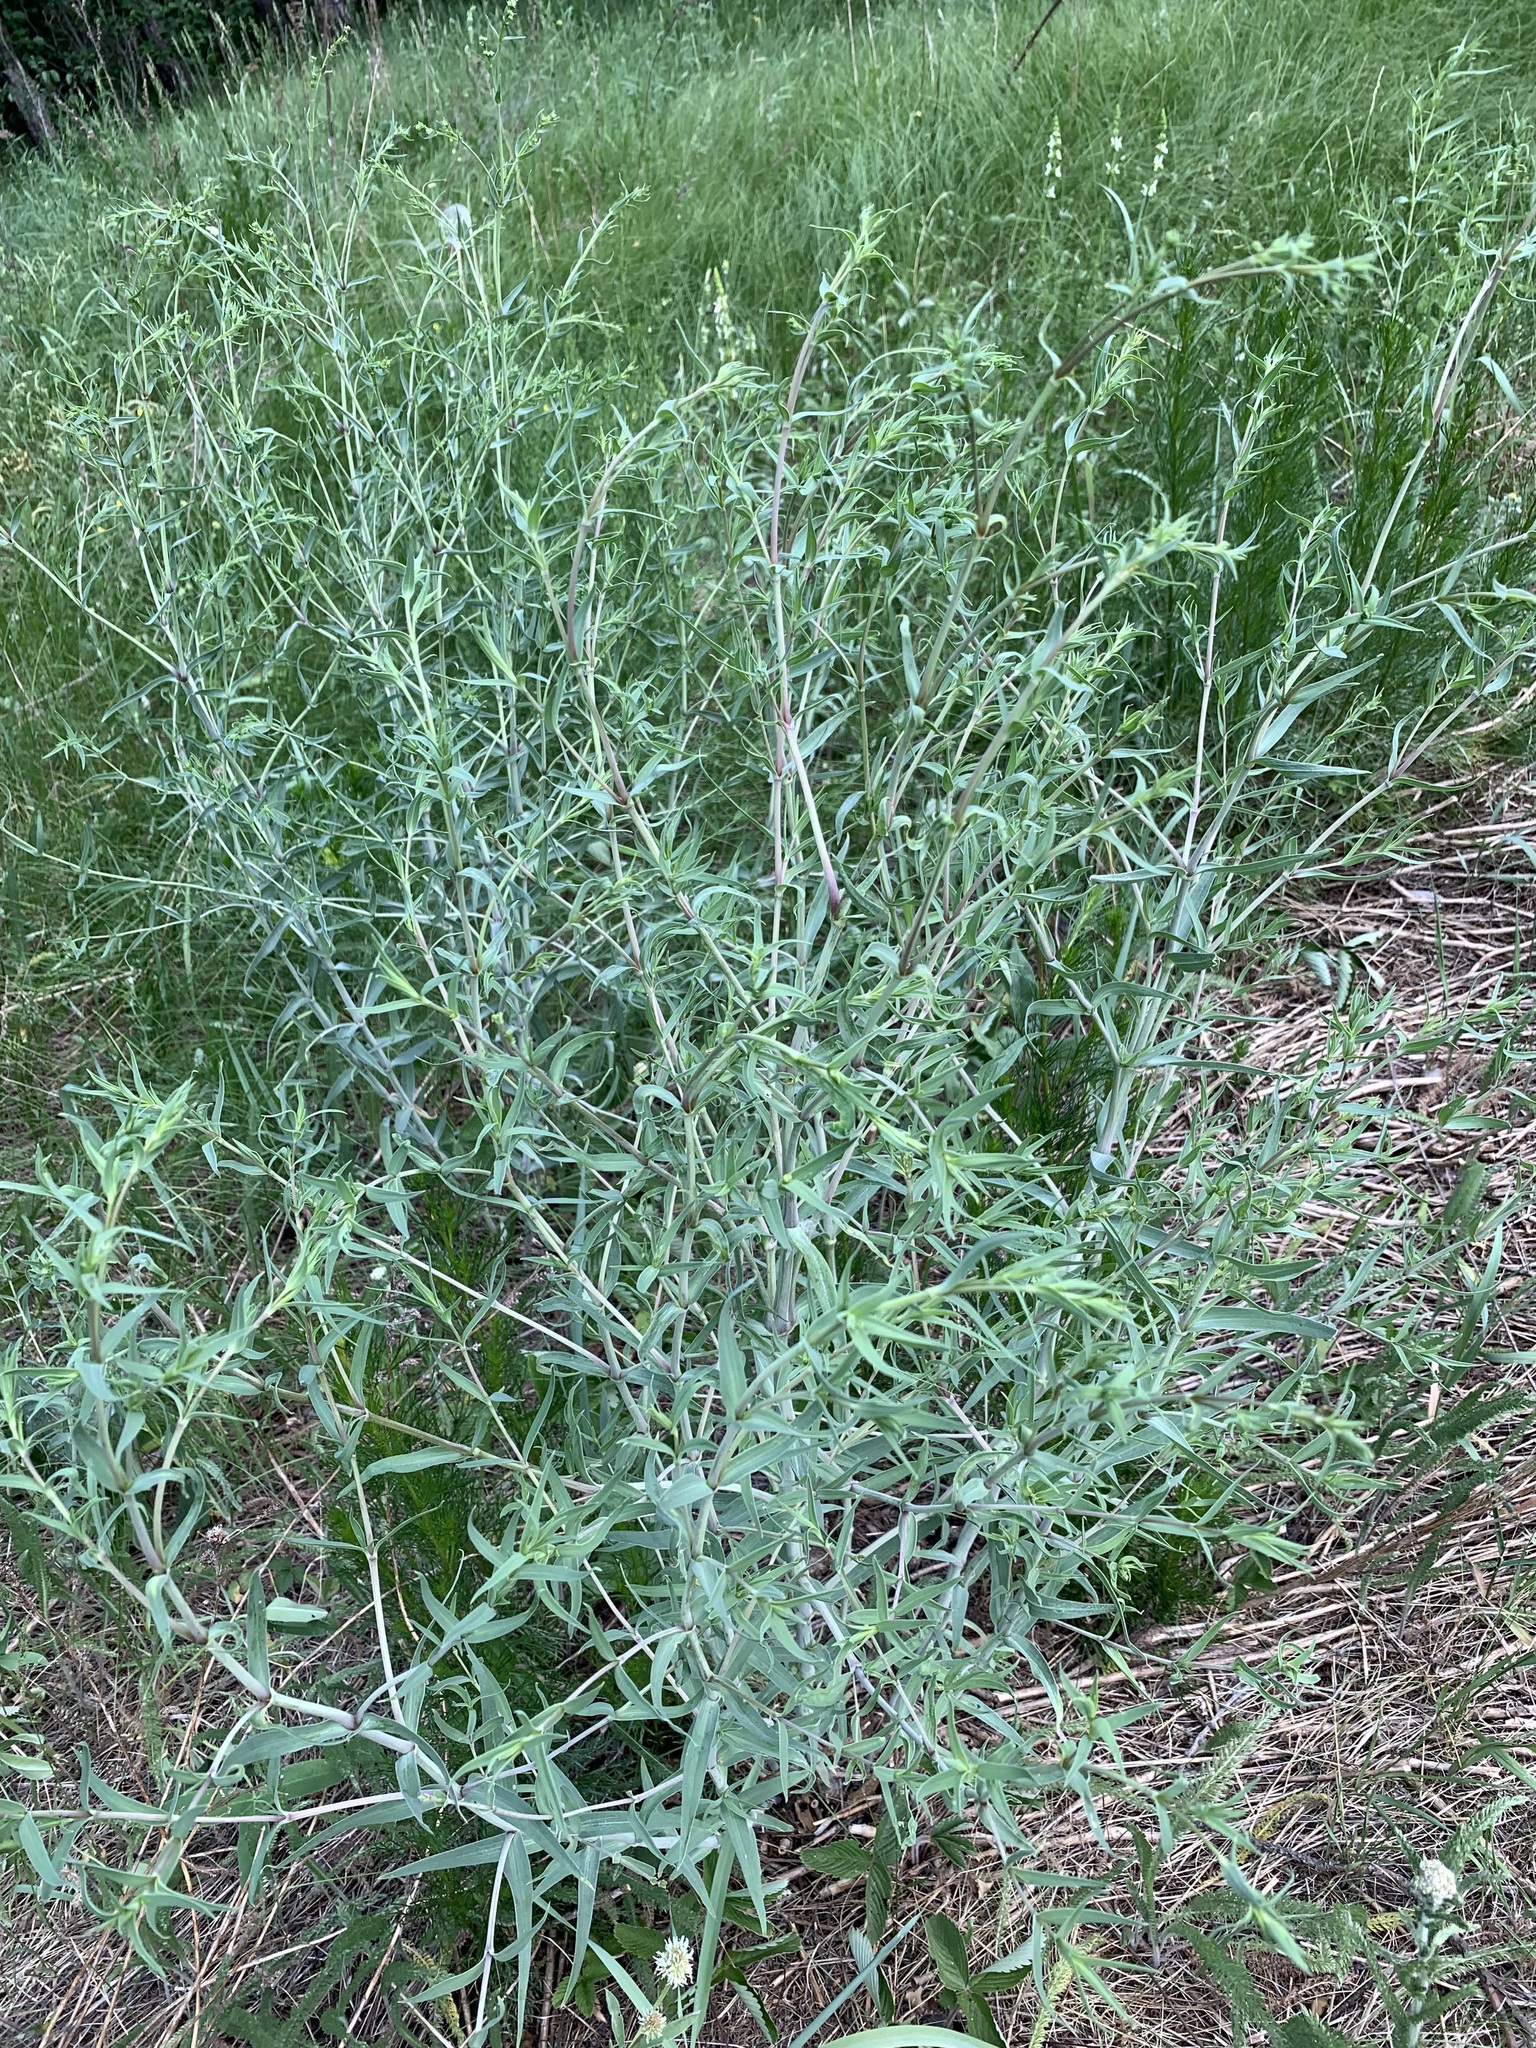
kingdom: Plantae
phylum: Tracheophyta
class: Magnoliopsida
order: Caryophyllales
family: Caryophyllaceae
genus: Gypsophila
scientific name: Gypsophila paniculata
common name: Baby's-breath
